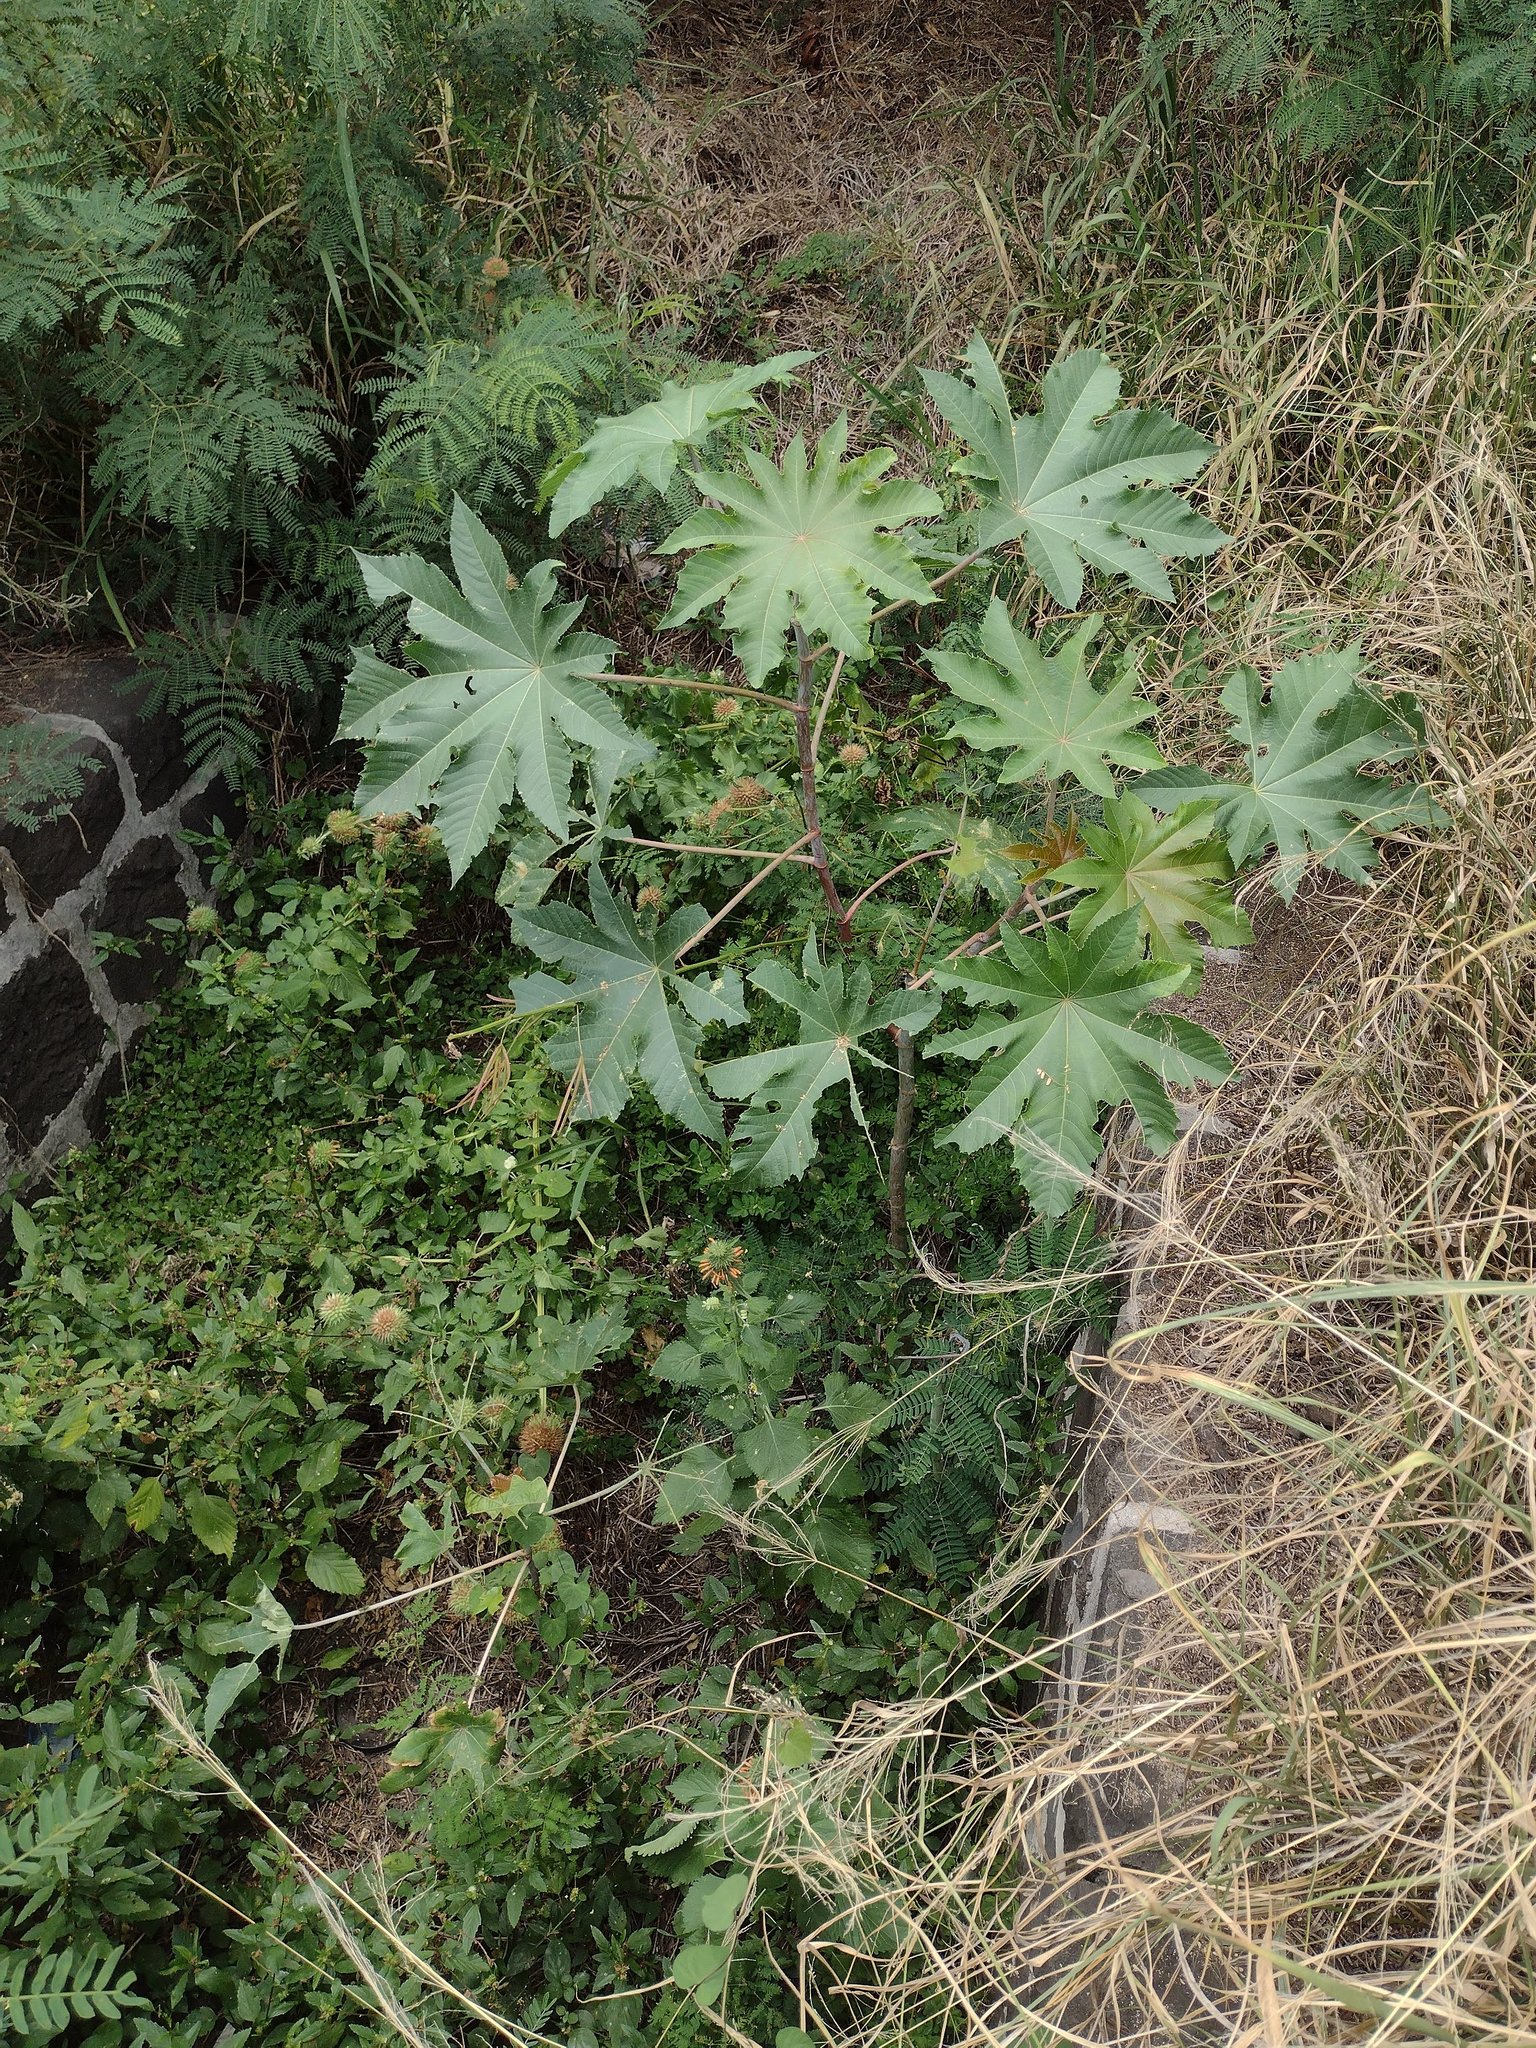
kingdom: Plantae
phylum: Tracheophyta
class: Magnoliopsida
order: Malpighiales
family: Euphorbiaceae
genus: Ricinus
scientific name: Ricinus communis
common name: Castor-oil-plant
